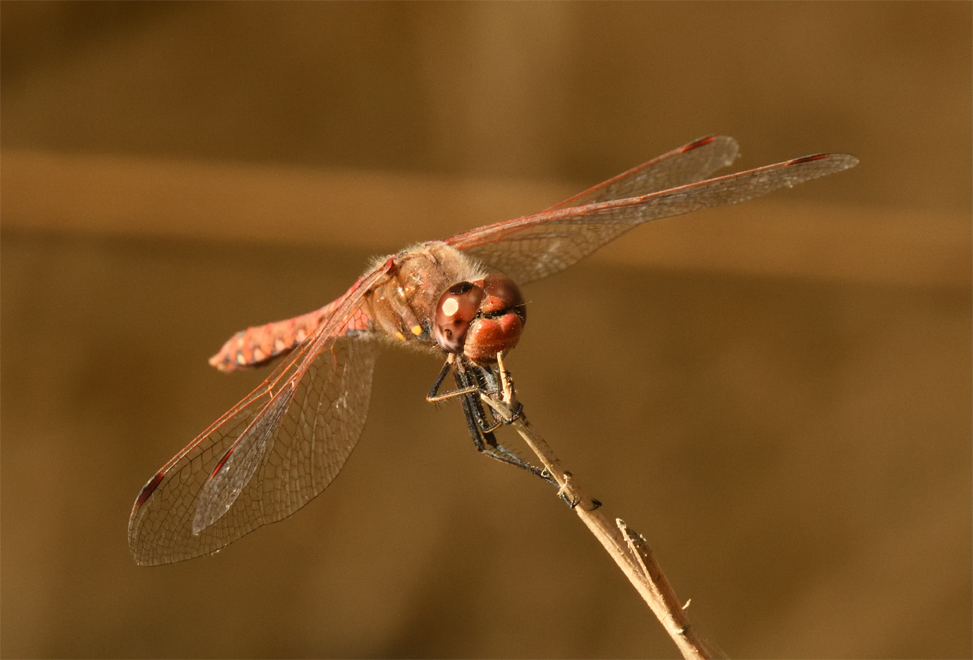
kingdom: Animalia
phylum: Arthropoda
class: Insecta
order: Odonata
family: Libellulidae
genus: Sympetrum
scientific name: Sympetrum corruptum
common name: Variegated meadowhawk
